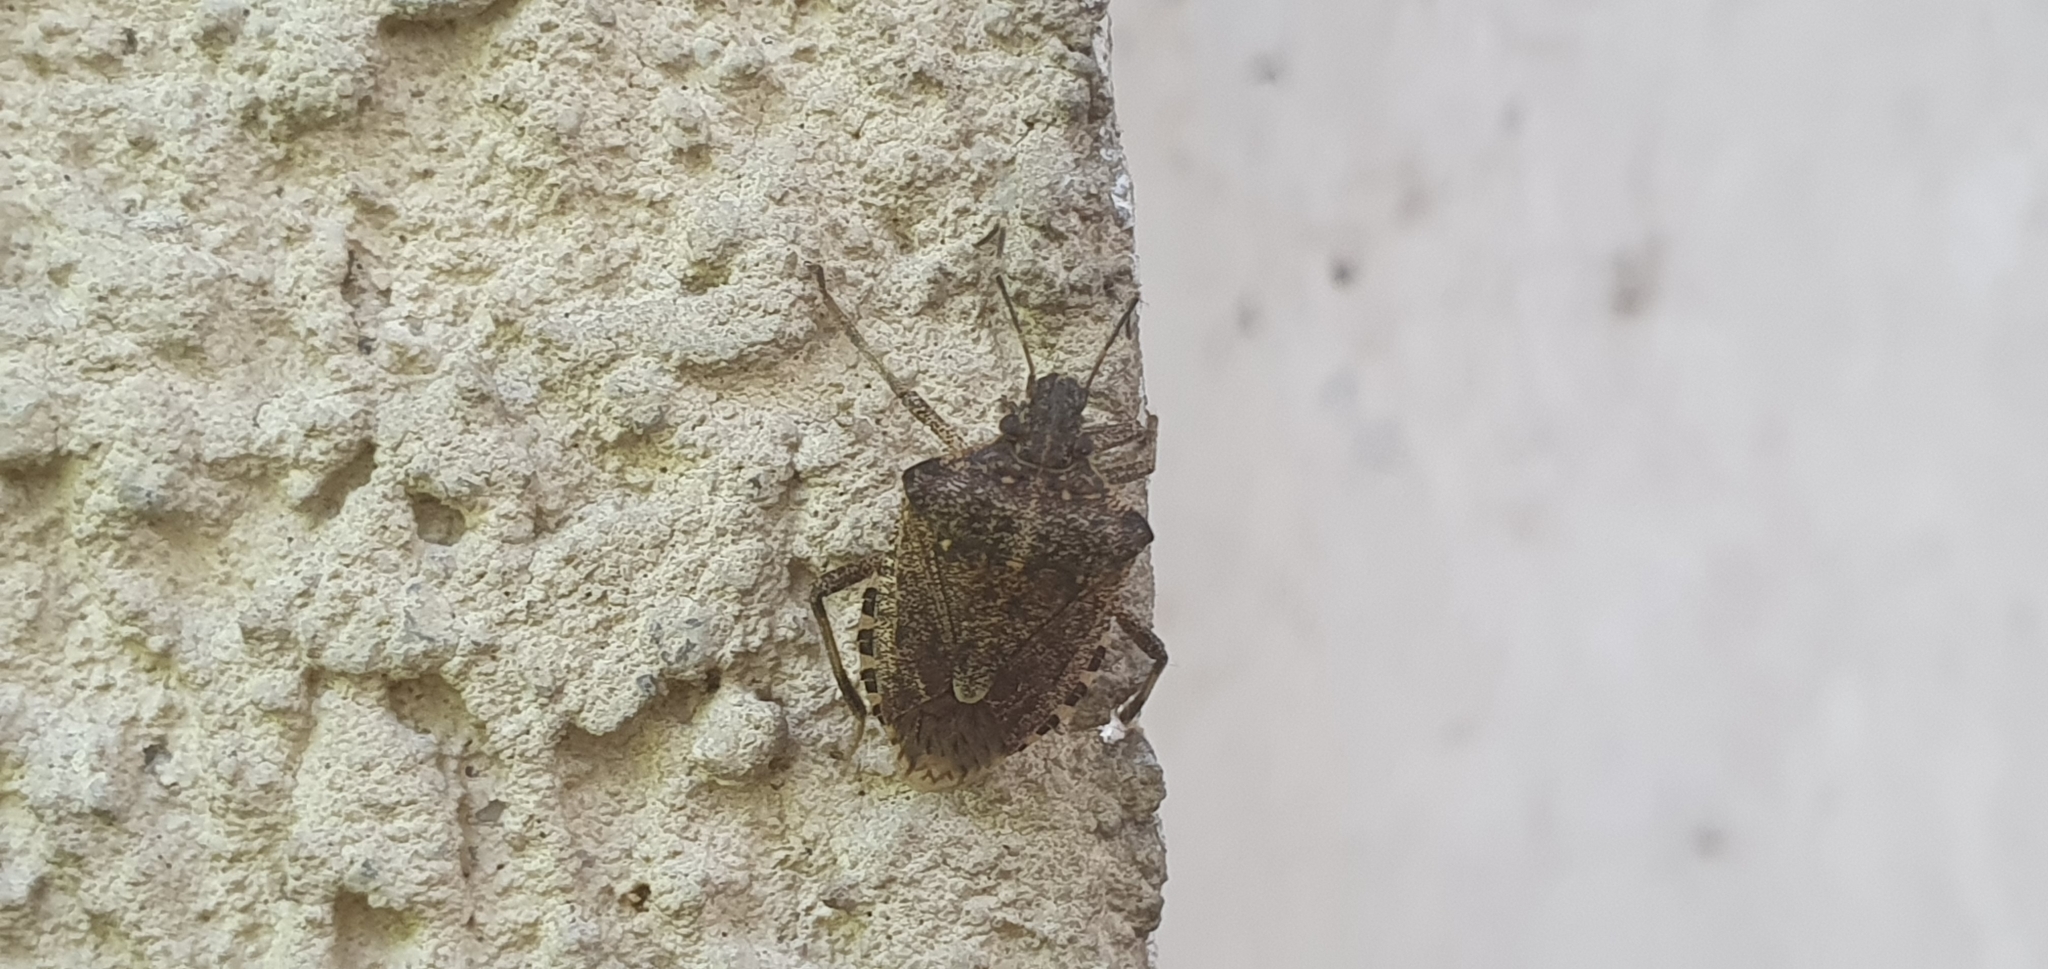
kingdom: Animalia
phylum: Arthropoda
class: Insecta
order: Hemiptera
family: Pentatomidae
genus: Halyomorpha
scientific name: Halyomorpha halys
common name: Brown marmorated stink bug
